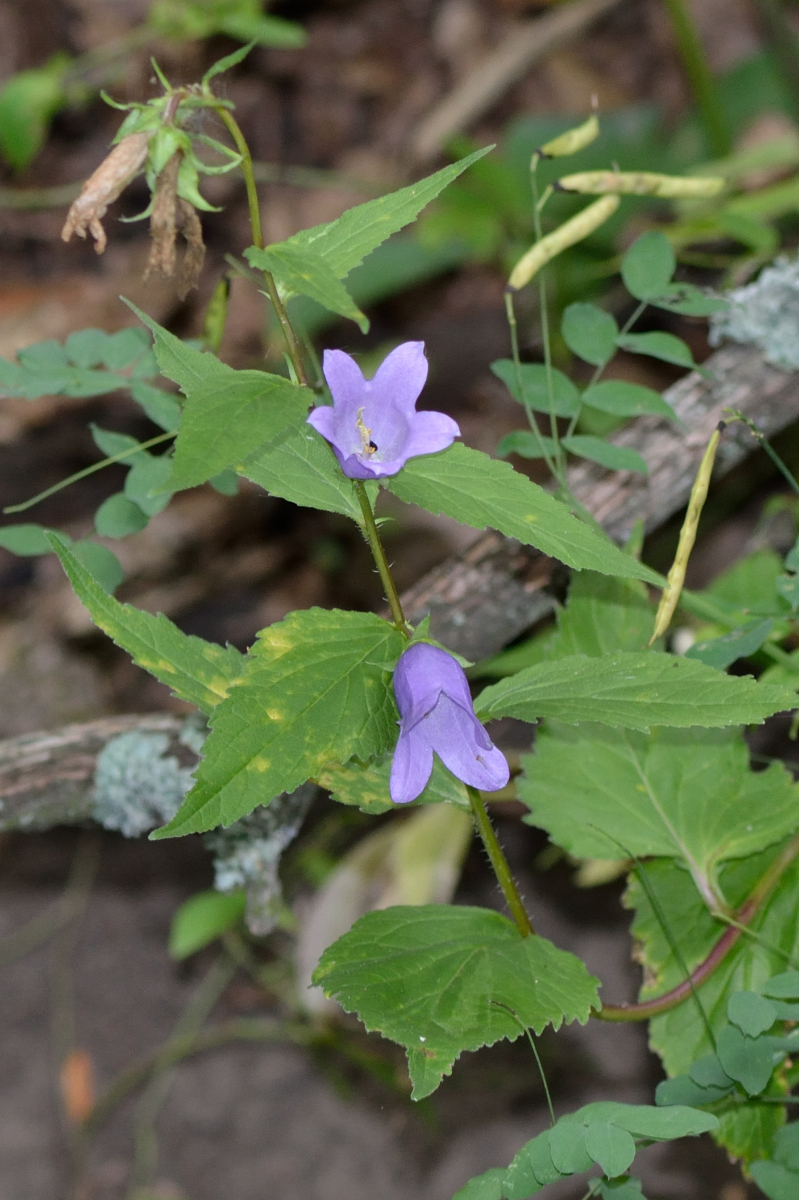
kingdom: Plantae
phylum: Tracheophyta
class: Magnoliopsida
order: Asterales
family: Campanulaceae
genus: Campanula
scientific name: Campanula trachelium
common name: Nettle-leaved bellflower
